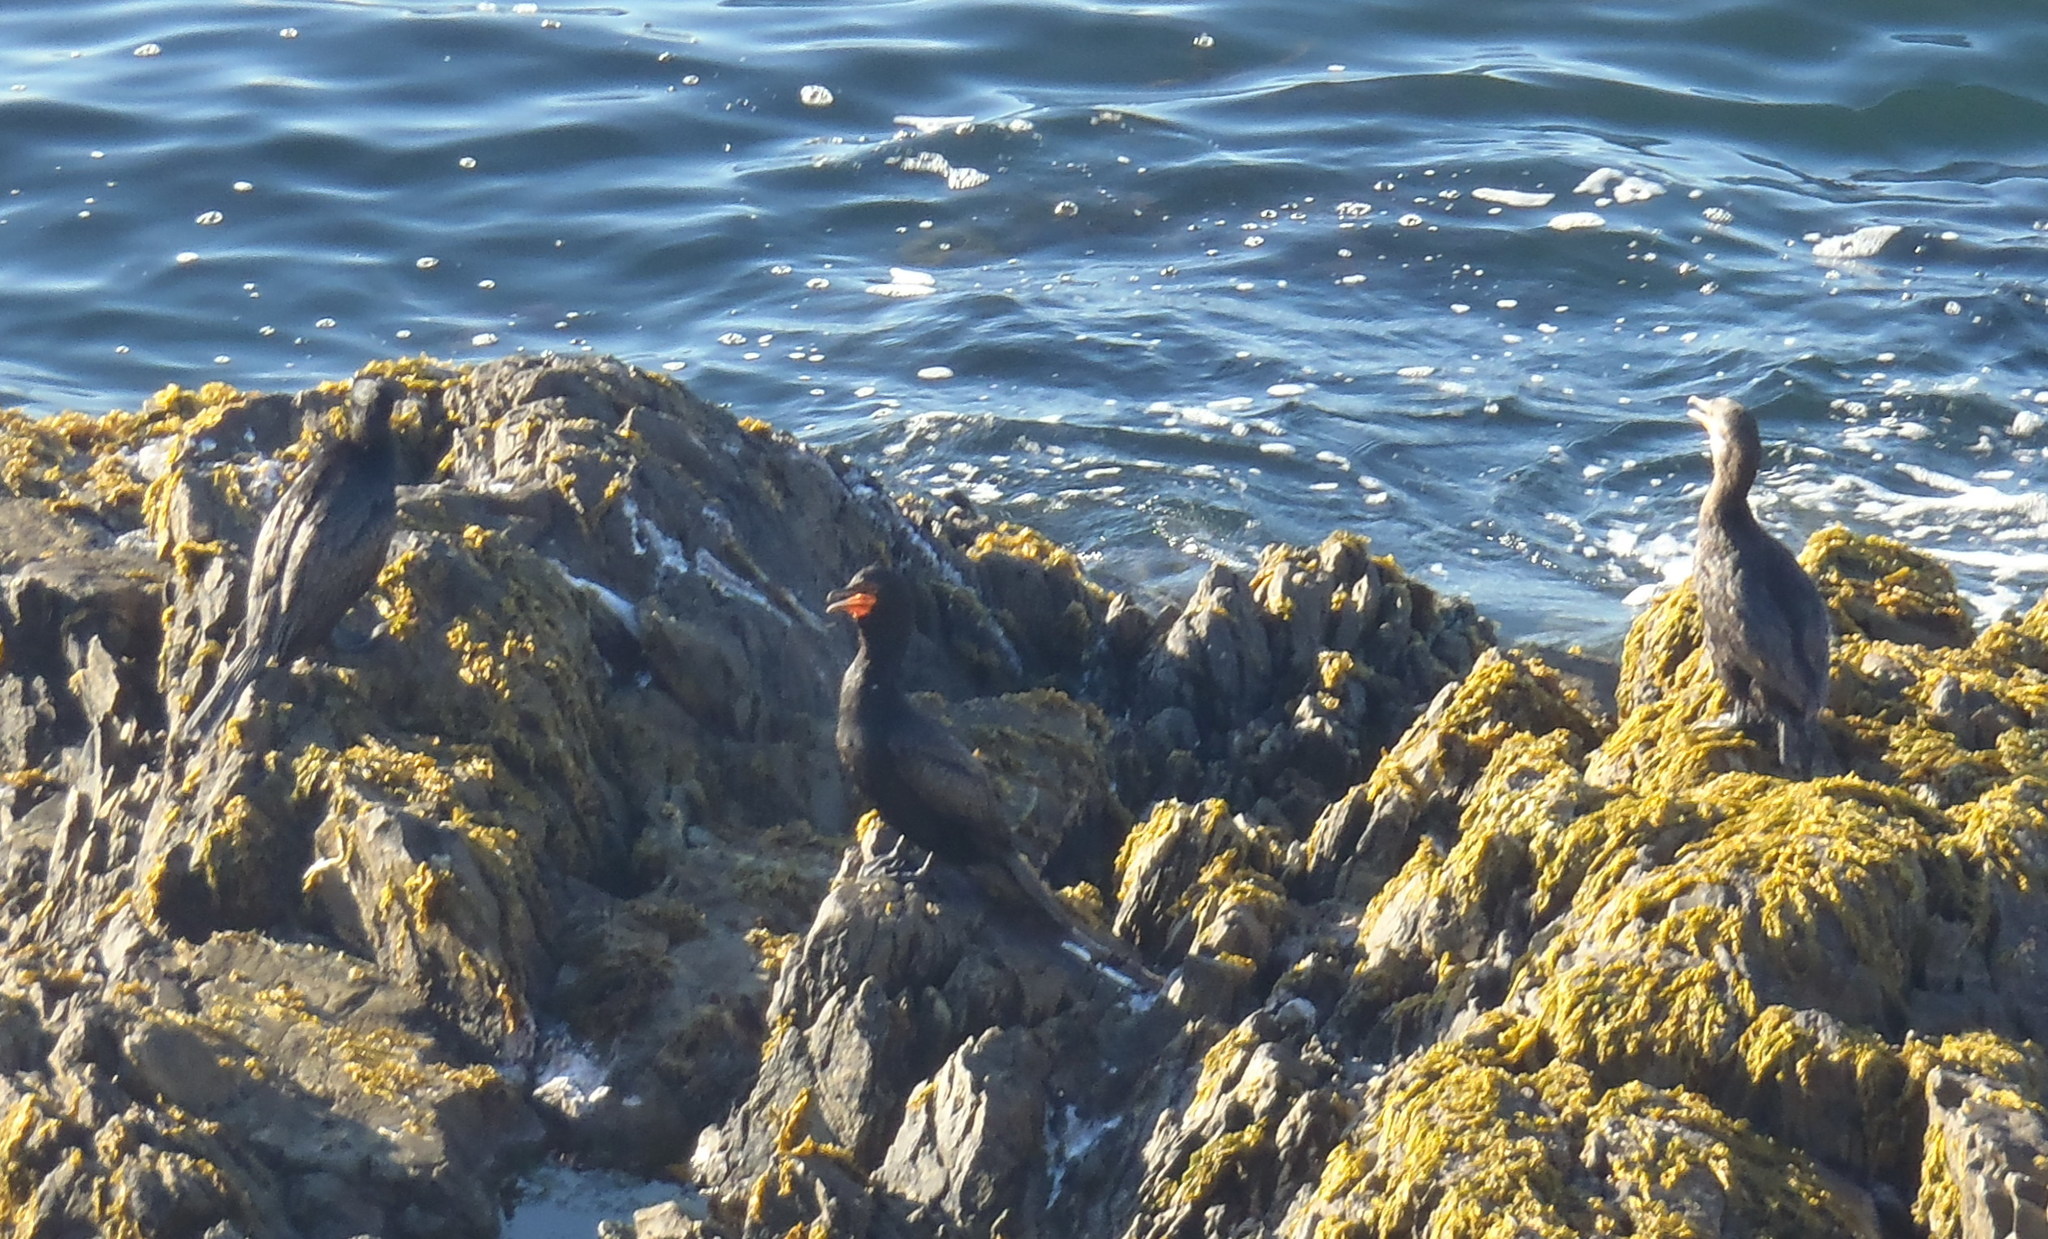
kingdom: Animalia
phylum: Chordata
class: Aves
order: Suliformes
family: Phalacrocoracidae
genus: Phalacrocorax
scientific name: Phalacrocorax capensis
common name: Cape cormorant
